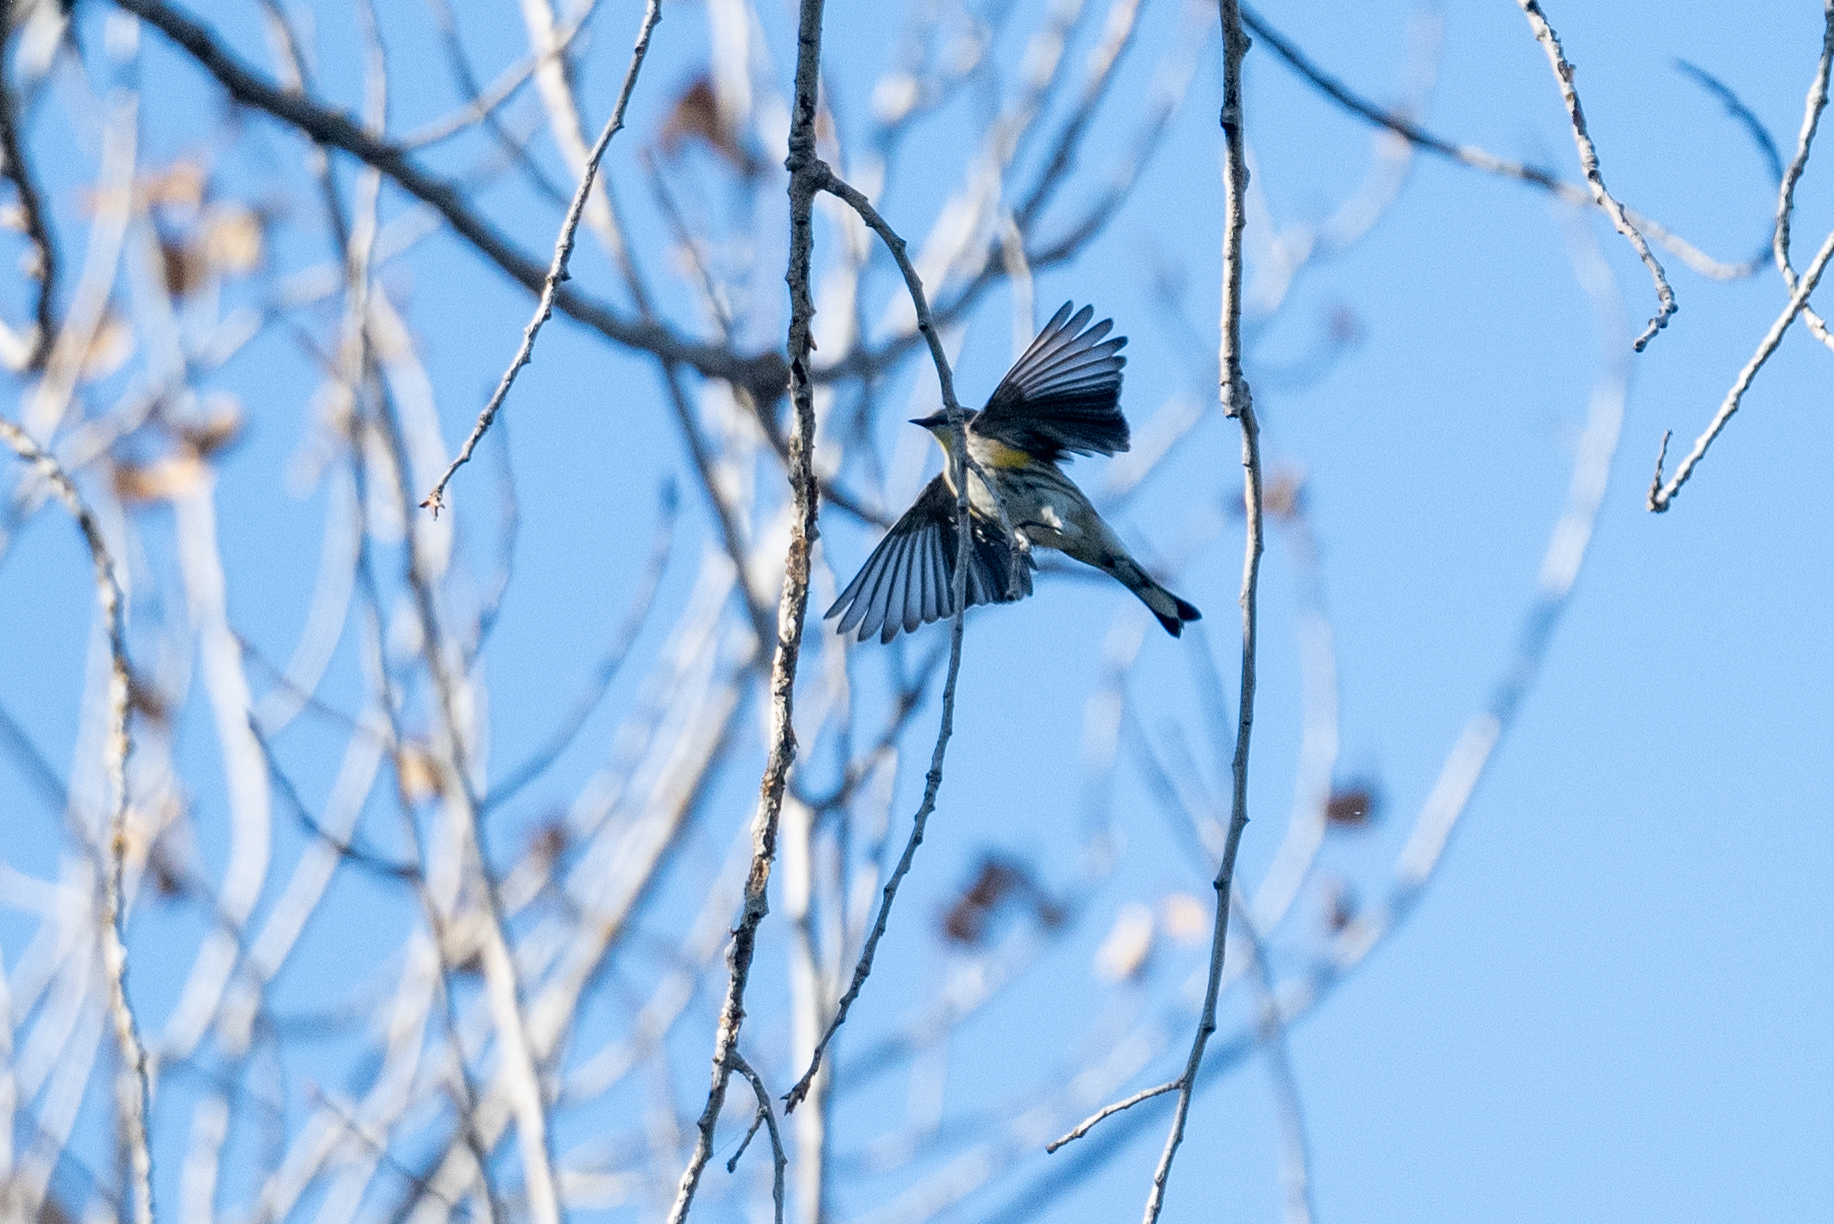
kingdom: Animalia
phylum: Chordata
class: Aves
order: Passeriformes
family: Parulidae
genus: Setophaga
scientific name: Setophaga coronata
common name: Myrtle warbler
